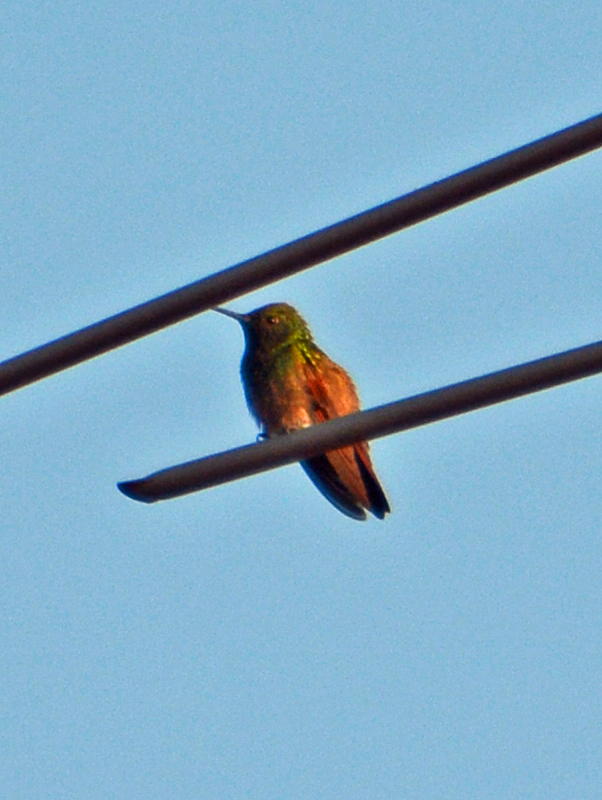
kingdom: Animalia
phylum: Chordata
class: Aves
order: Apodiformes
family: Trochilidae
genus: Saucerottia
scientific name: Saucerottia beryllina
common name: Berylline hummingbird
